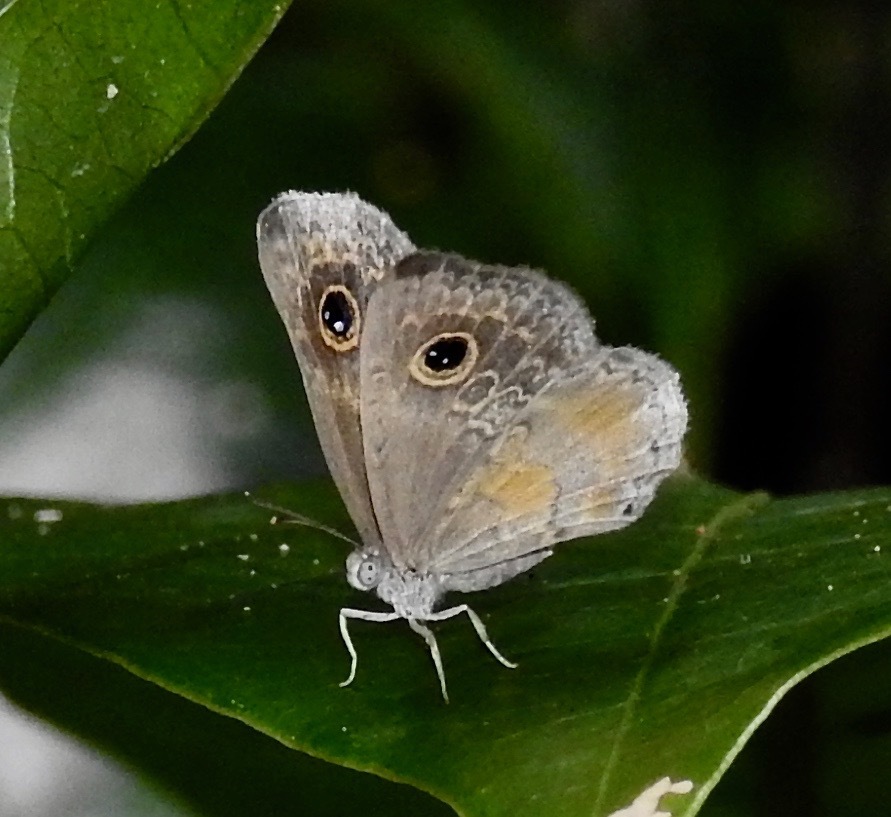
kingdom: Animalia
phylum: Arthropoda
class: Insecta
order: Lepidoptera
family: Riodinidae
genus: Perophthalma
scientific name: Perophthalma tullius
